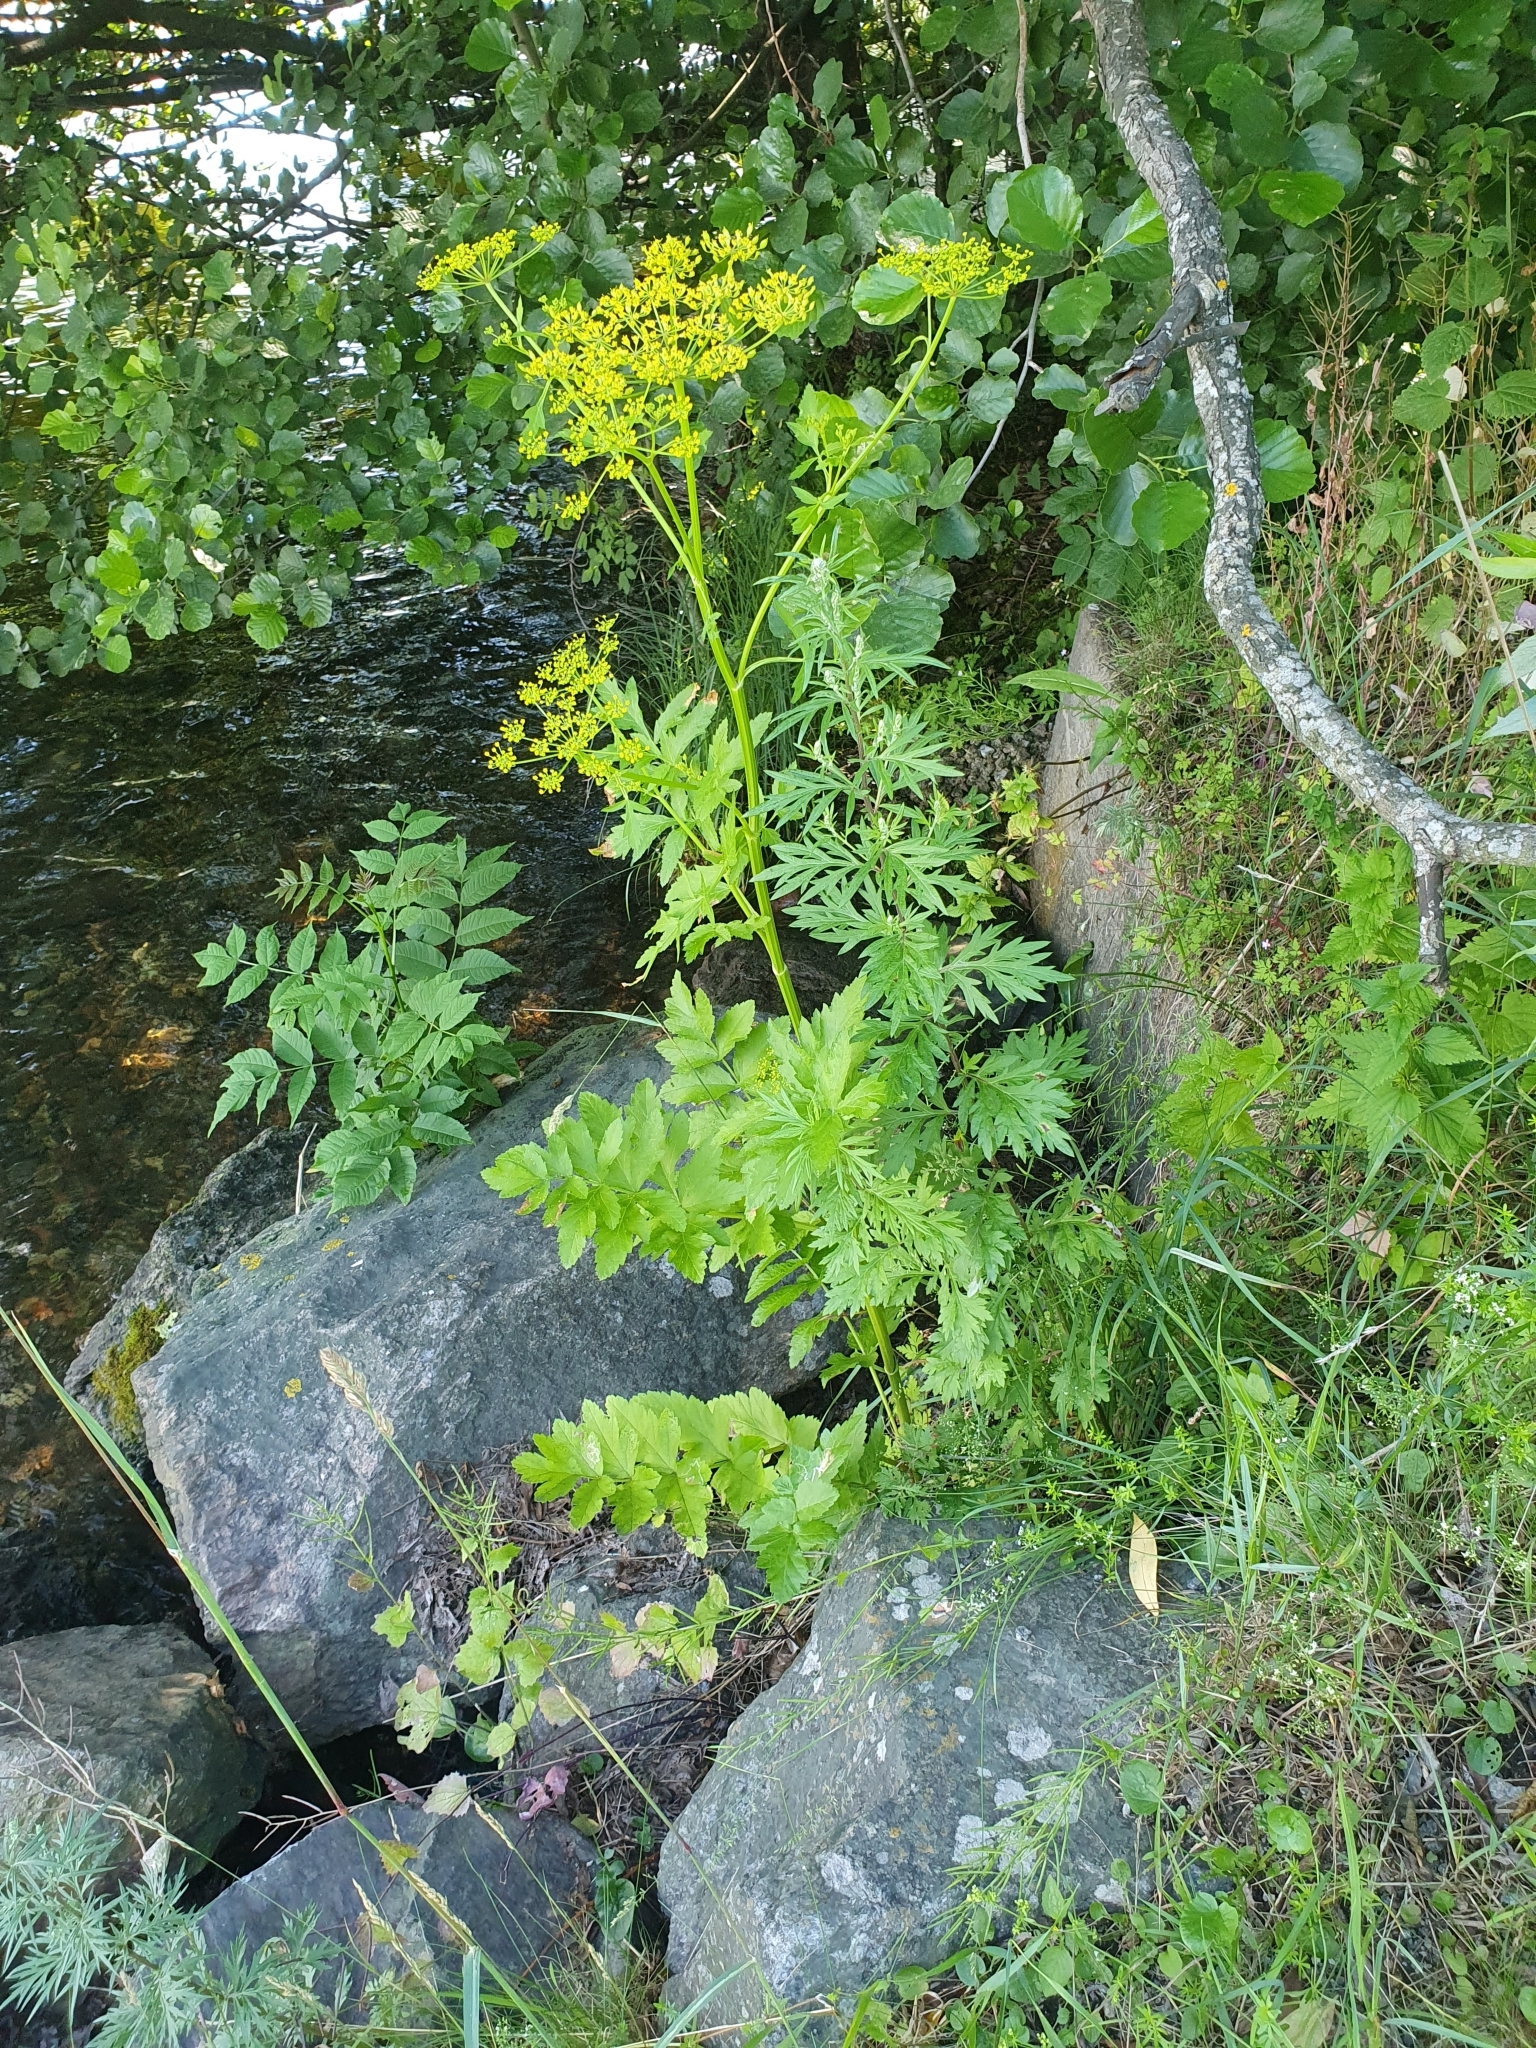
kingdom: Plantae
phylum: Tracheophyta
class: Magnoliopsida
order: Apiales
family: Apiaceae
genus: Pastinaca
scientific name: Pastinaca sativa
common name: Wild parsnip
